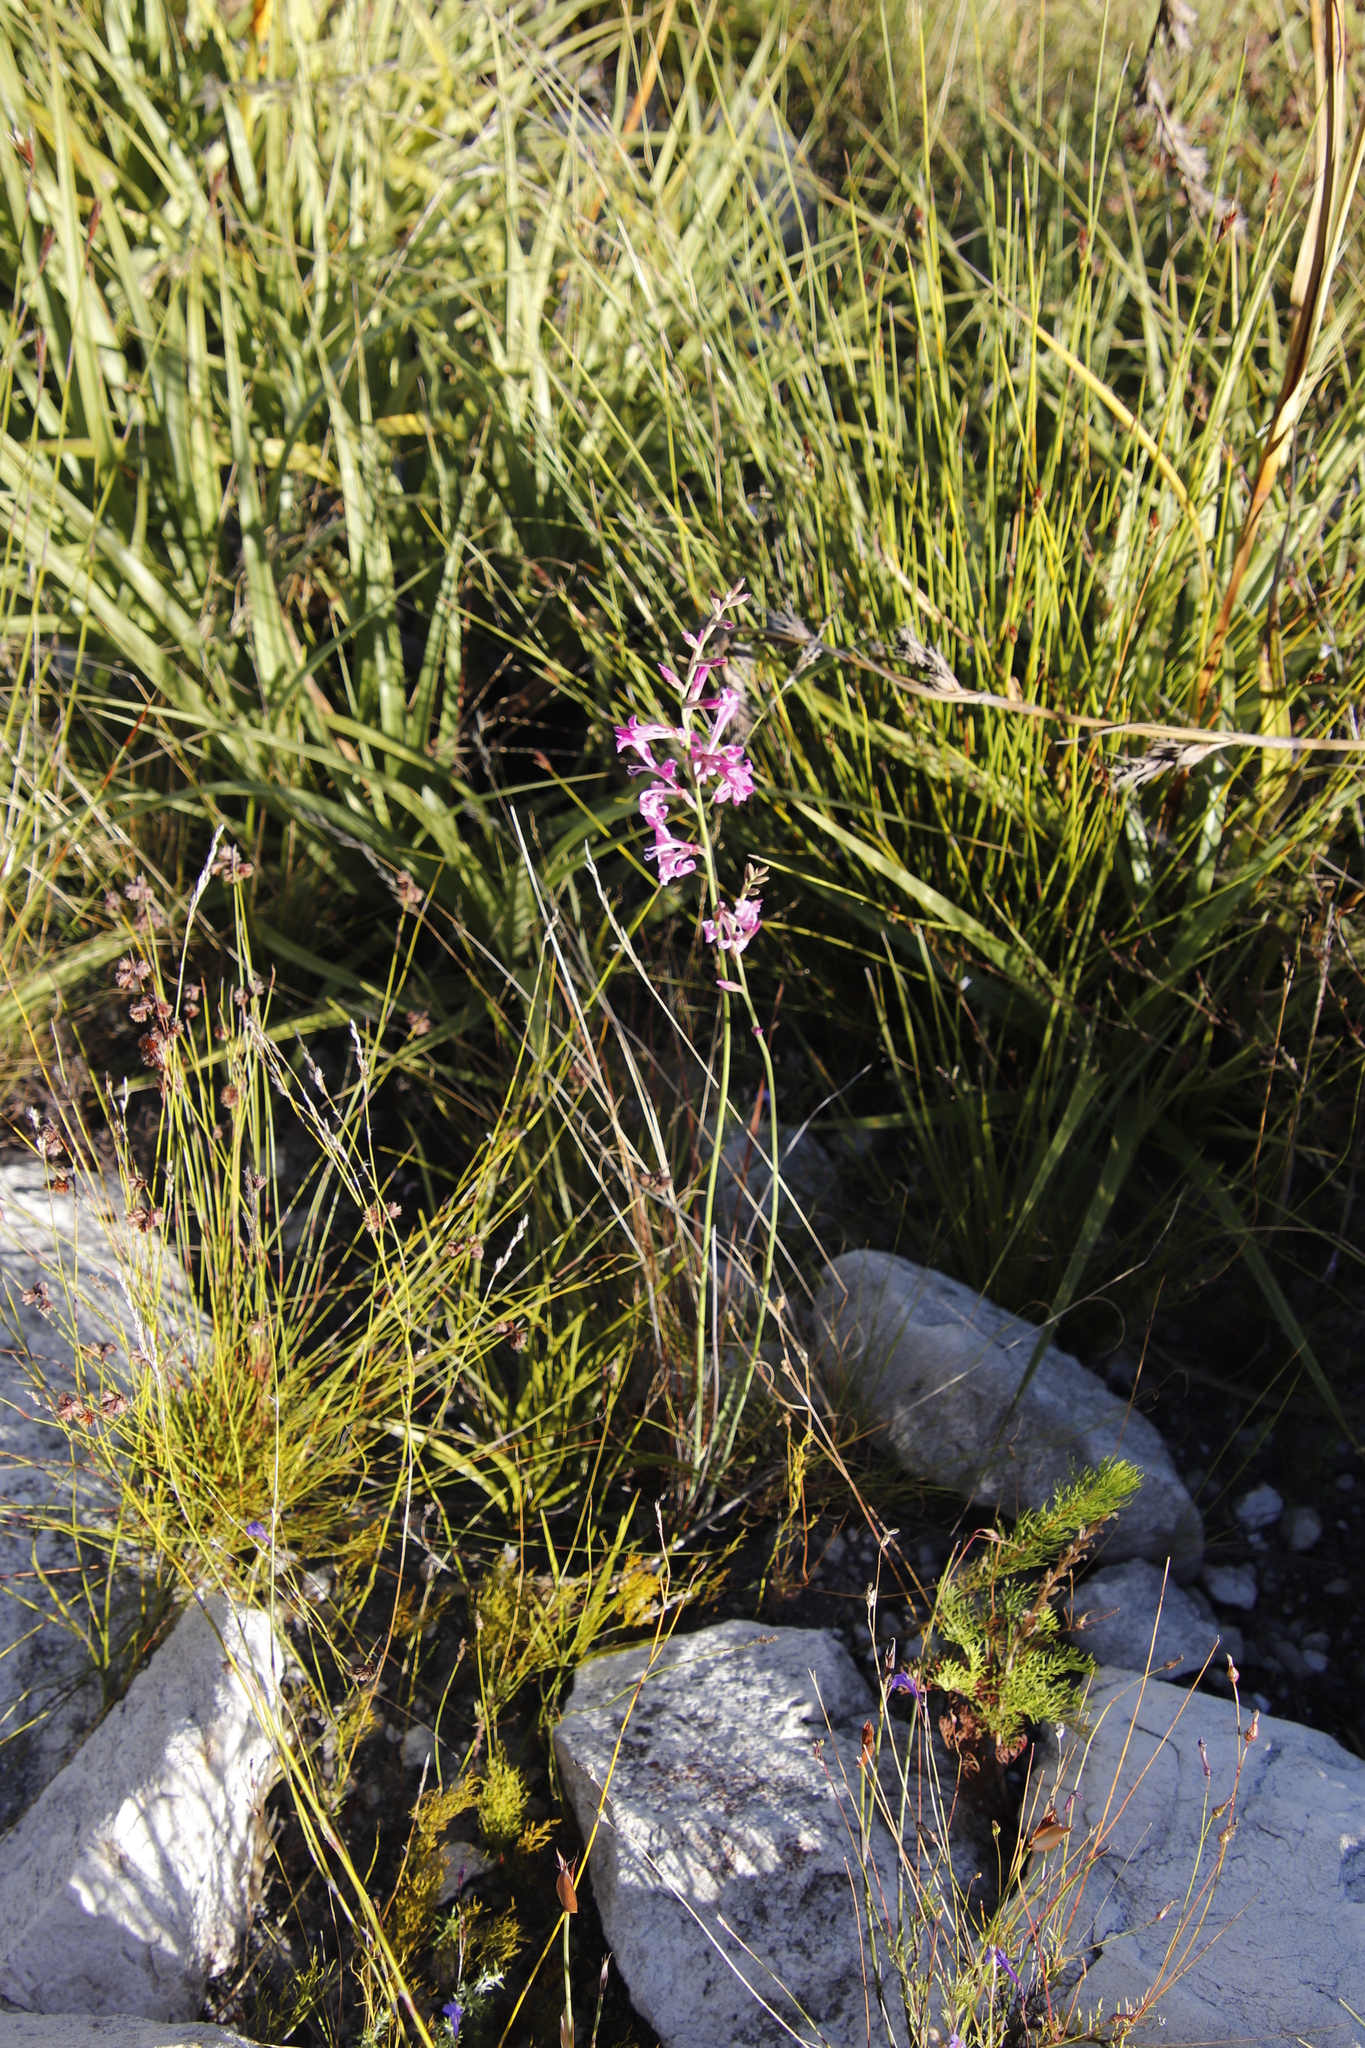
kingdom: Plantae
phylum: Tracheophyta
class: Liliopsida
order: Asparagales
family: Iridaceae
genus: Tritoniopsis
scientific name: Tritoniopsis ramosa
